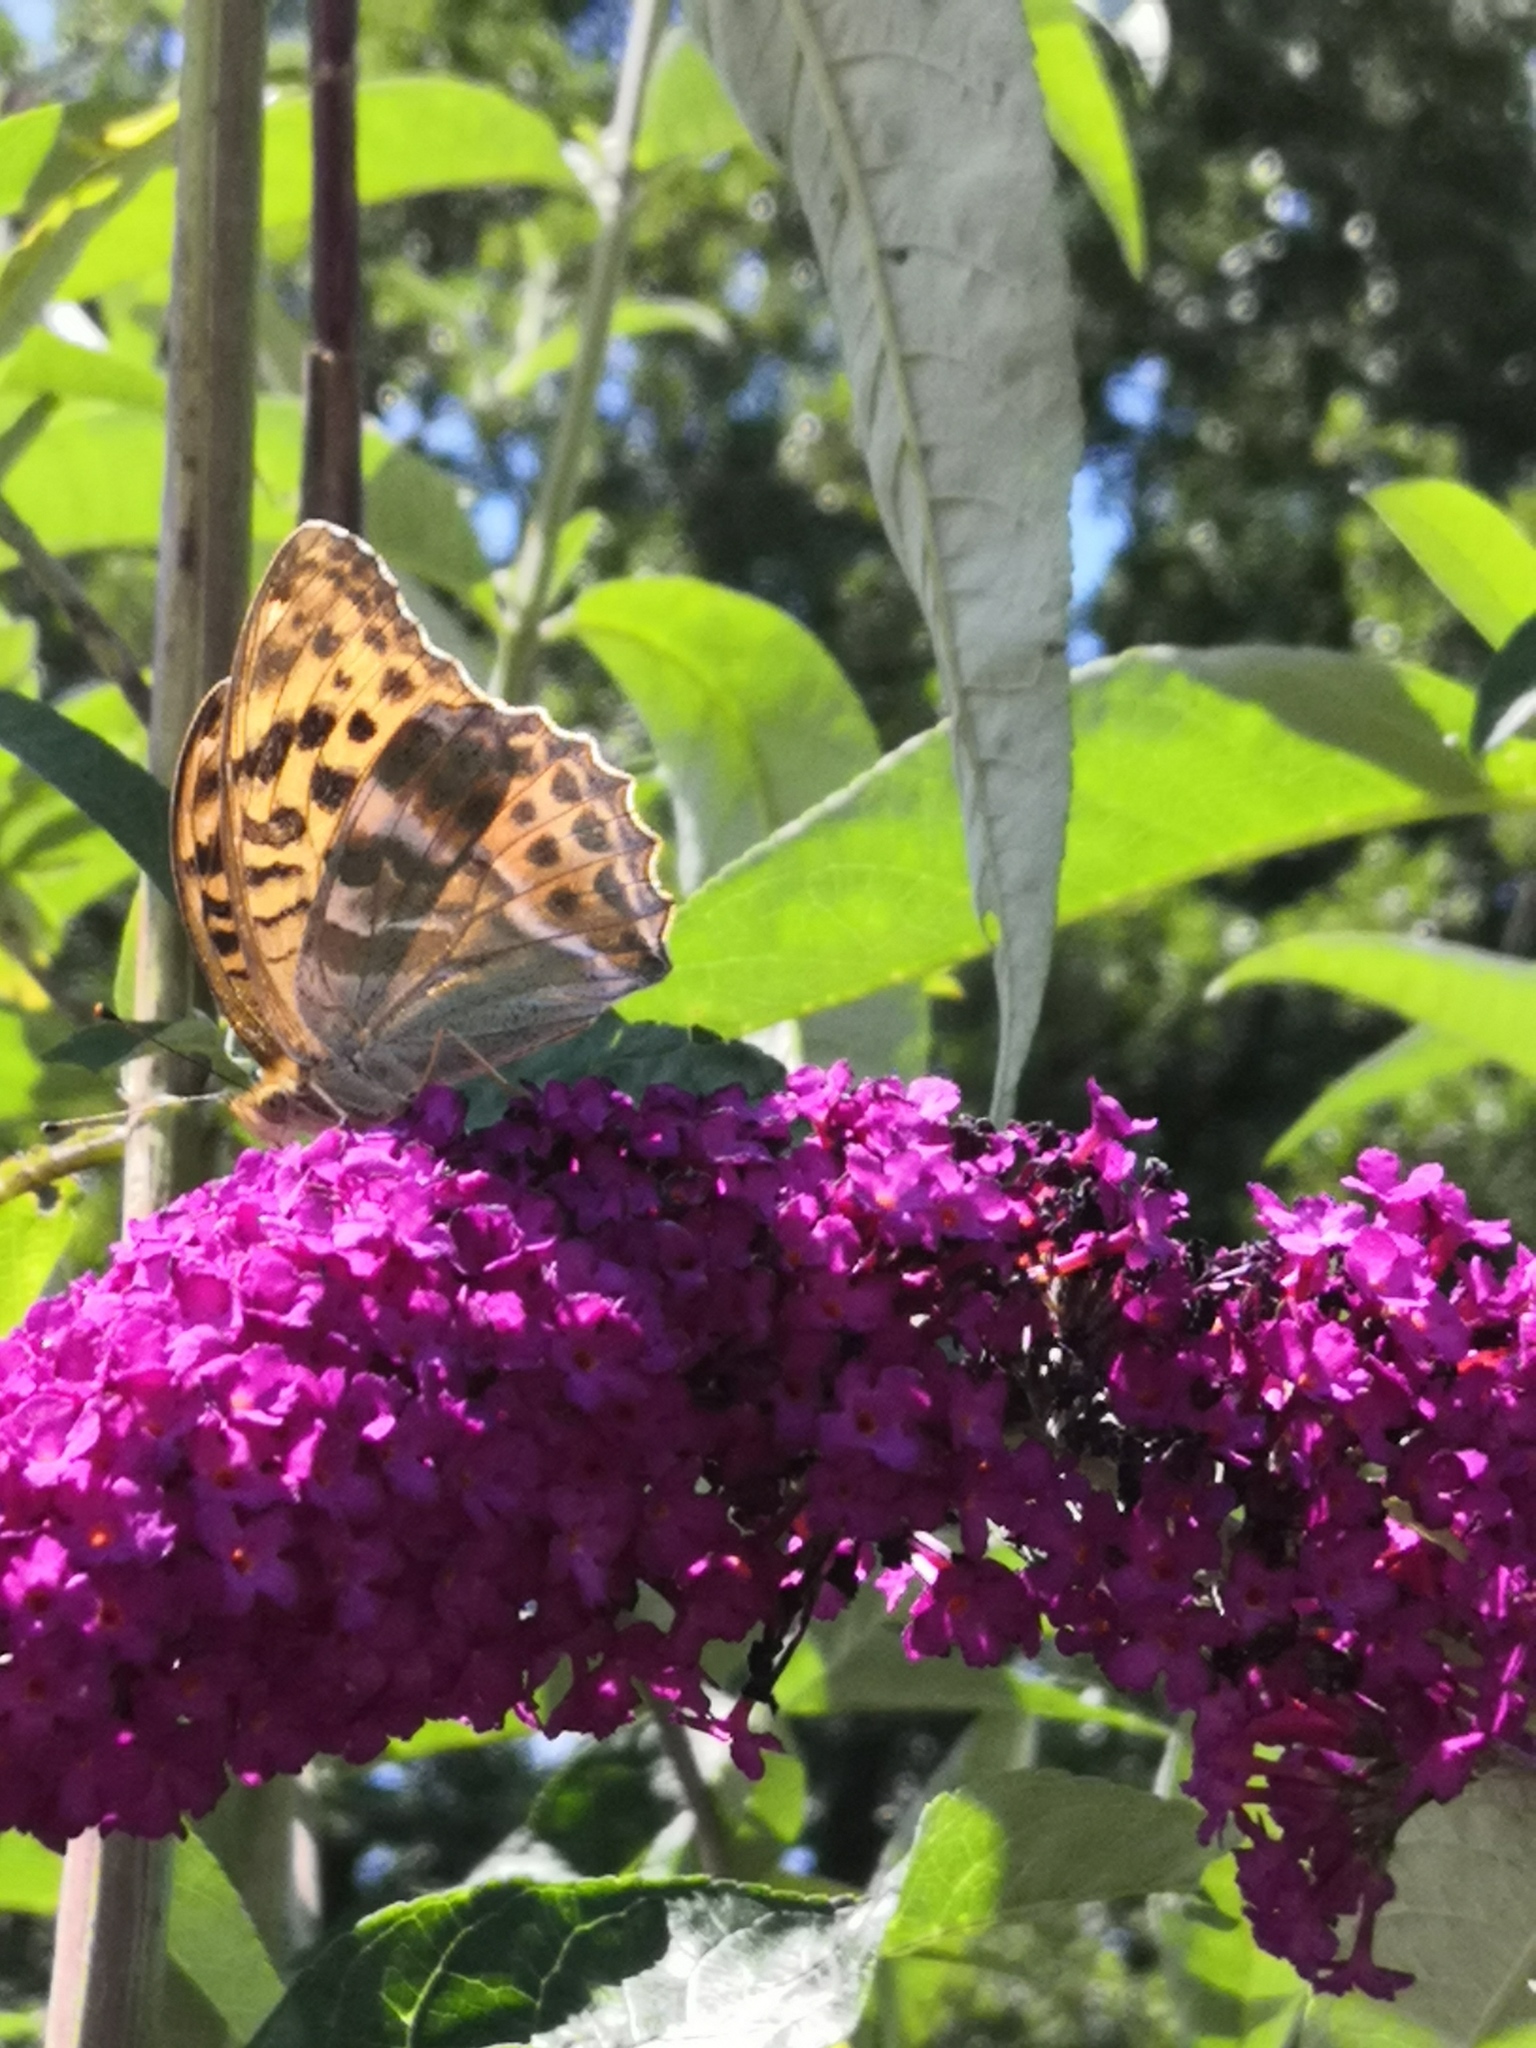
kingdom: Animalia
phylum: Arthropoda
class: Insecta
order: Lepidoptera
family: Nymphalidae
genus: Argynnis
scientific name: Argynnis paphia
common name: Silver-washed fritillary
